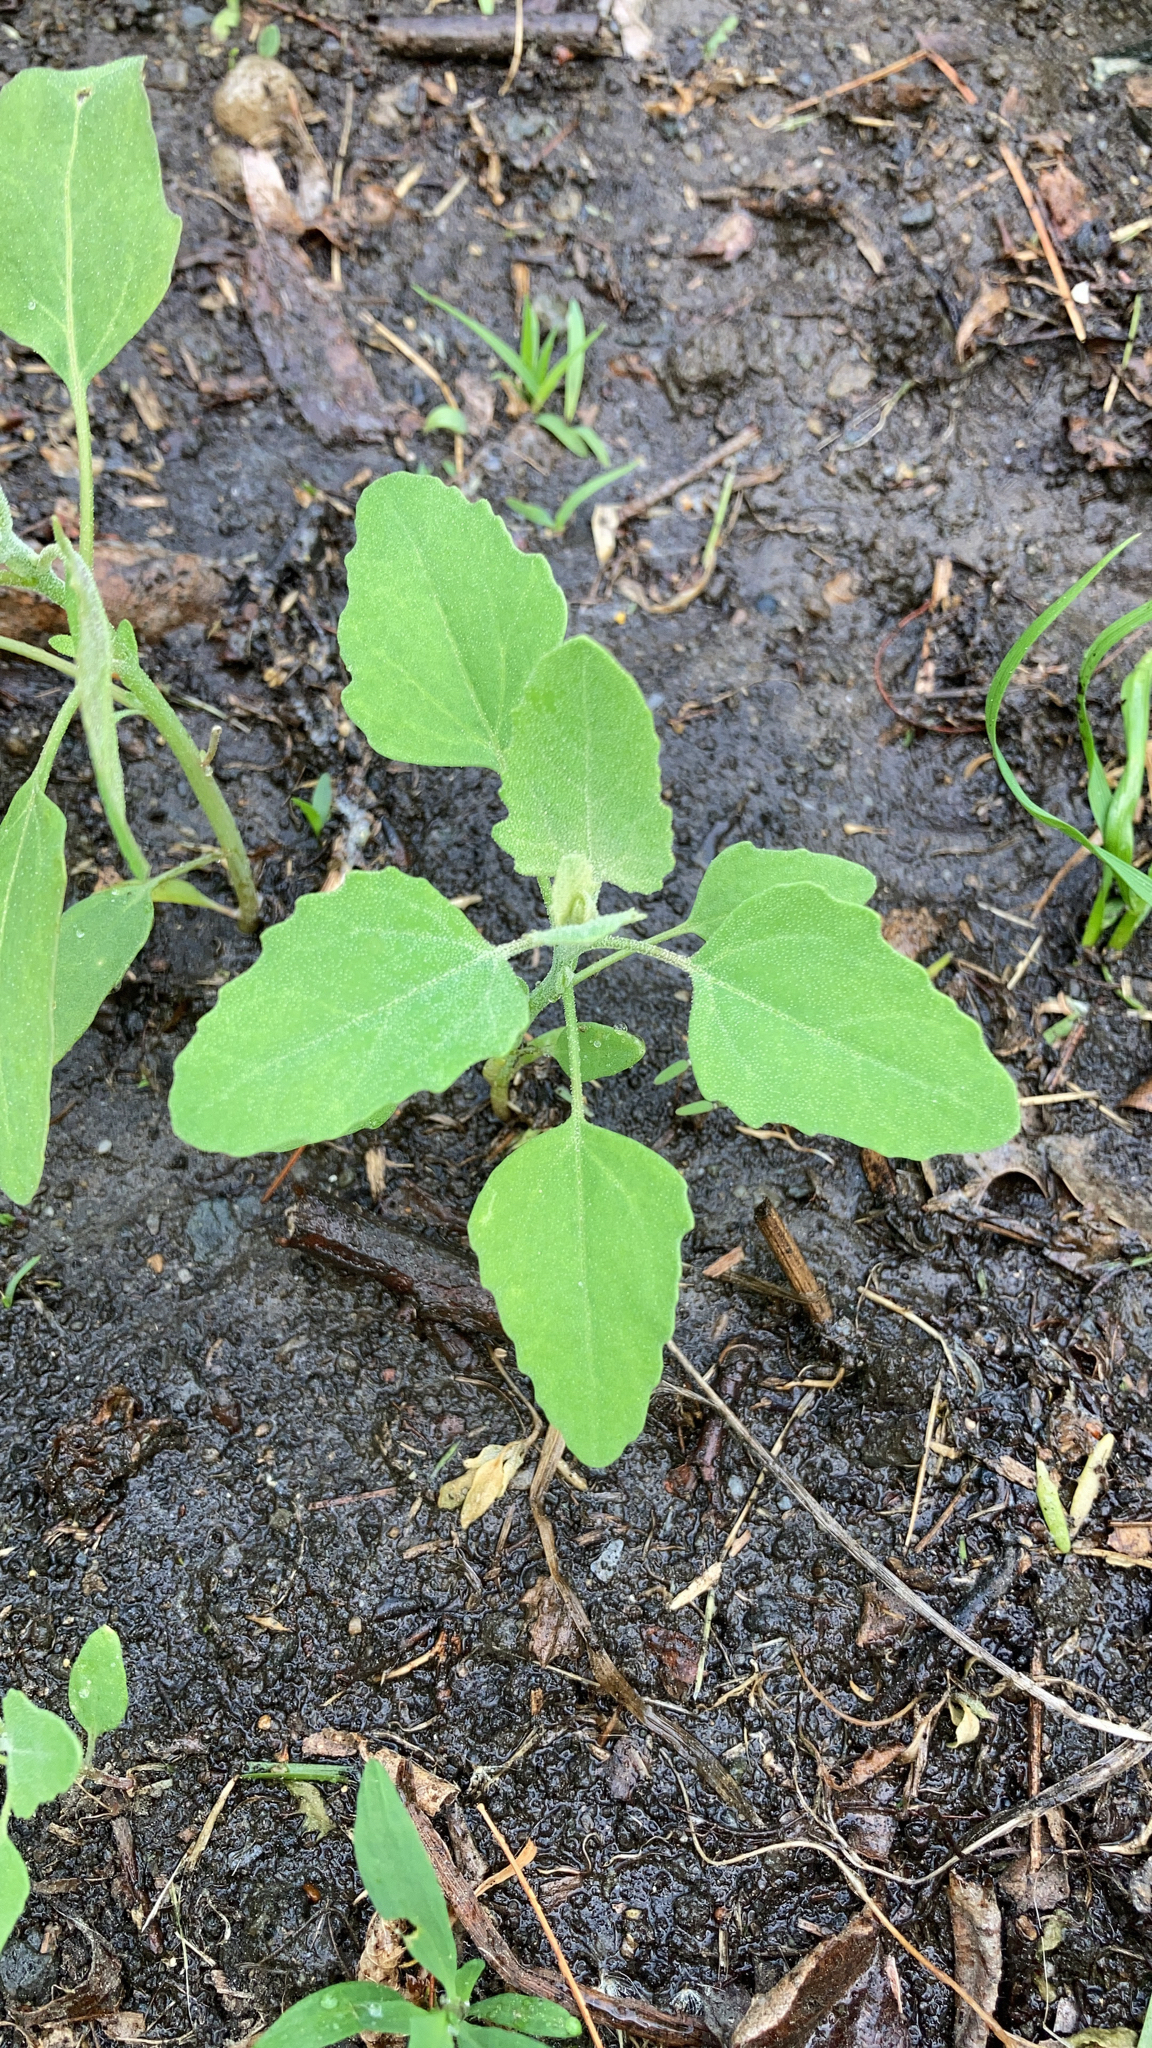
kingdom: Plantae
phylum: Tracheophyta
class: Magnoliopsida
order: Caryophyllales
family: Amaranthaceae
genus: Chenopodium
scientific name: Chenopodium album
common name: Fat-hen
